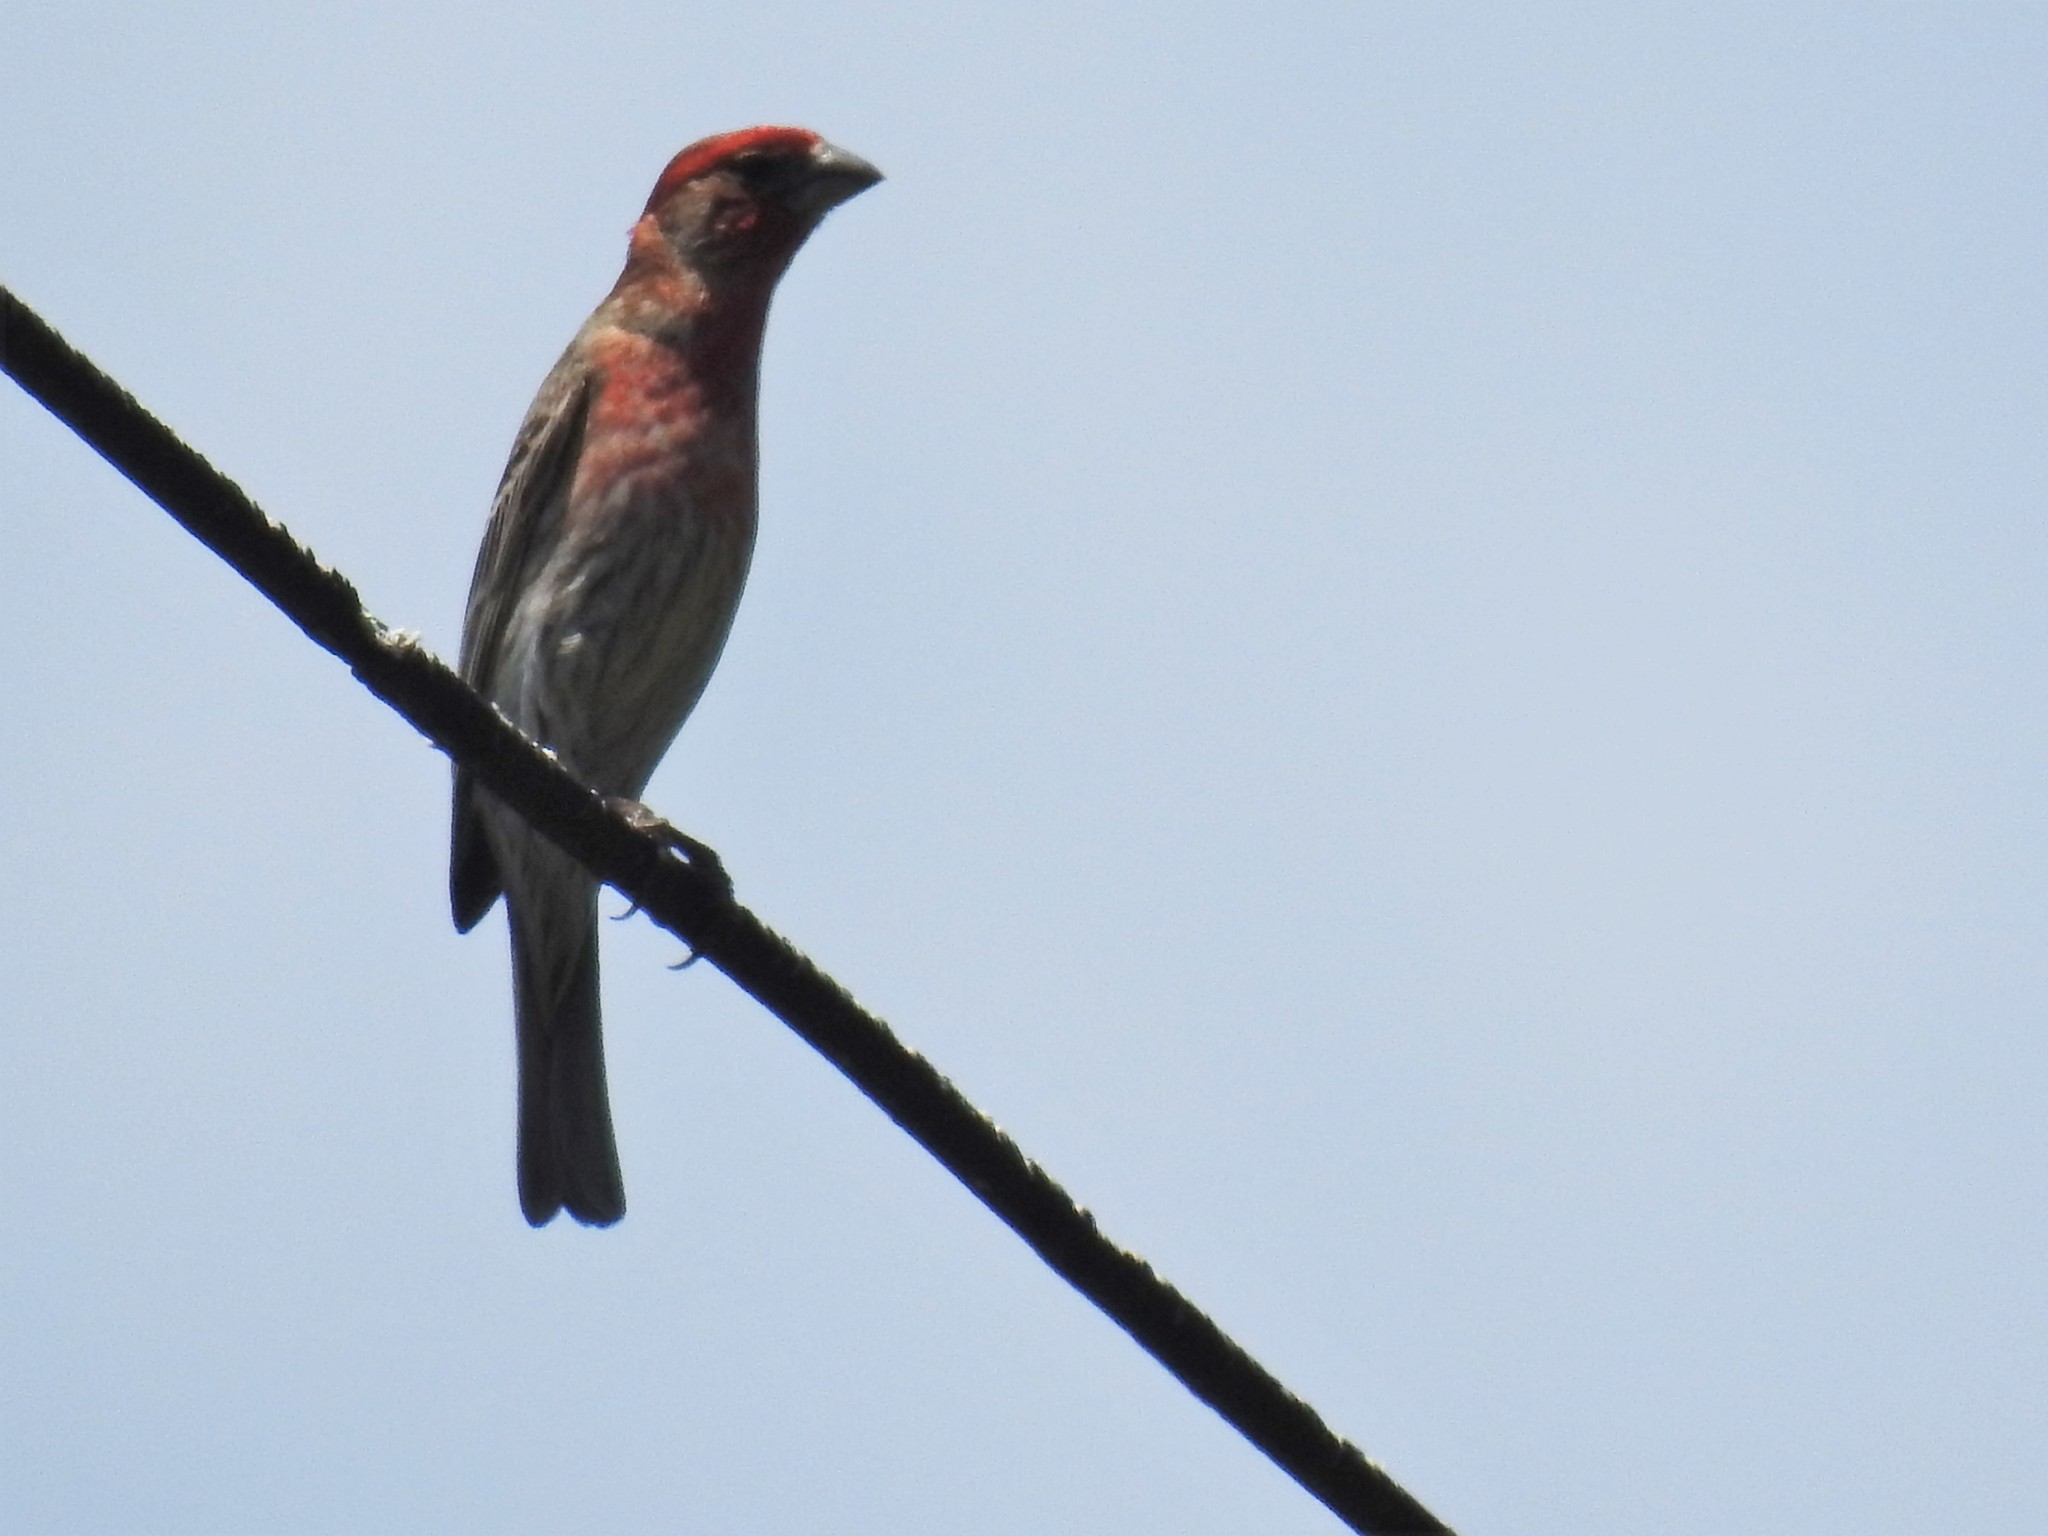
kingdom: Animalia
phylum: Chordata
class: Aves
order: Passeriformes
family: Fringillidae
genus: Haemorhous
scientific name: Haemorhous mexicanus
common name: House finch
